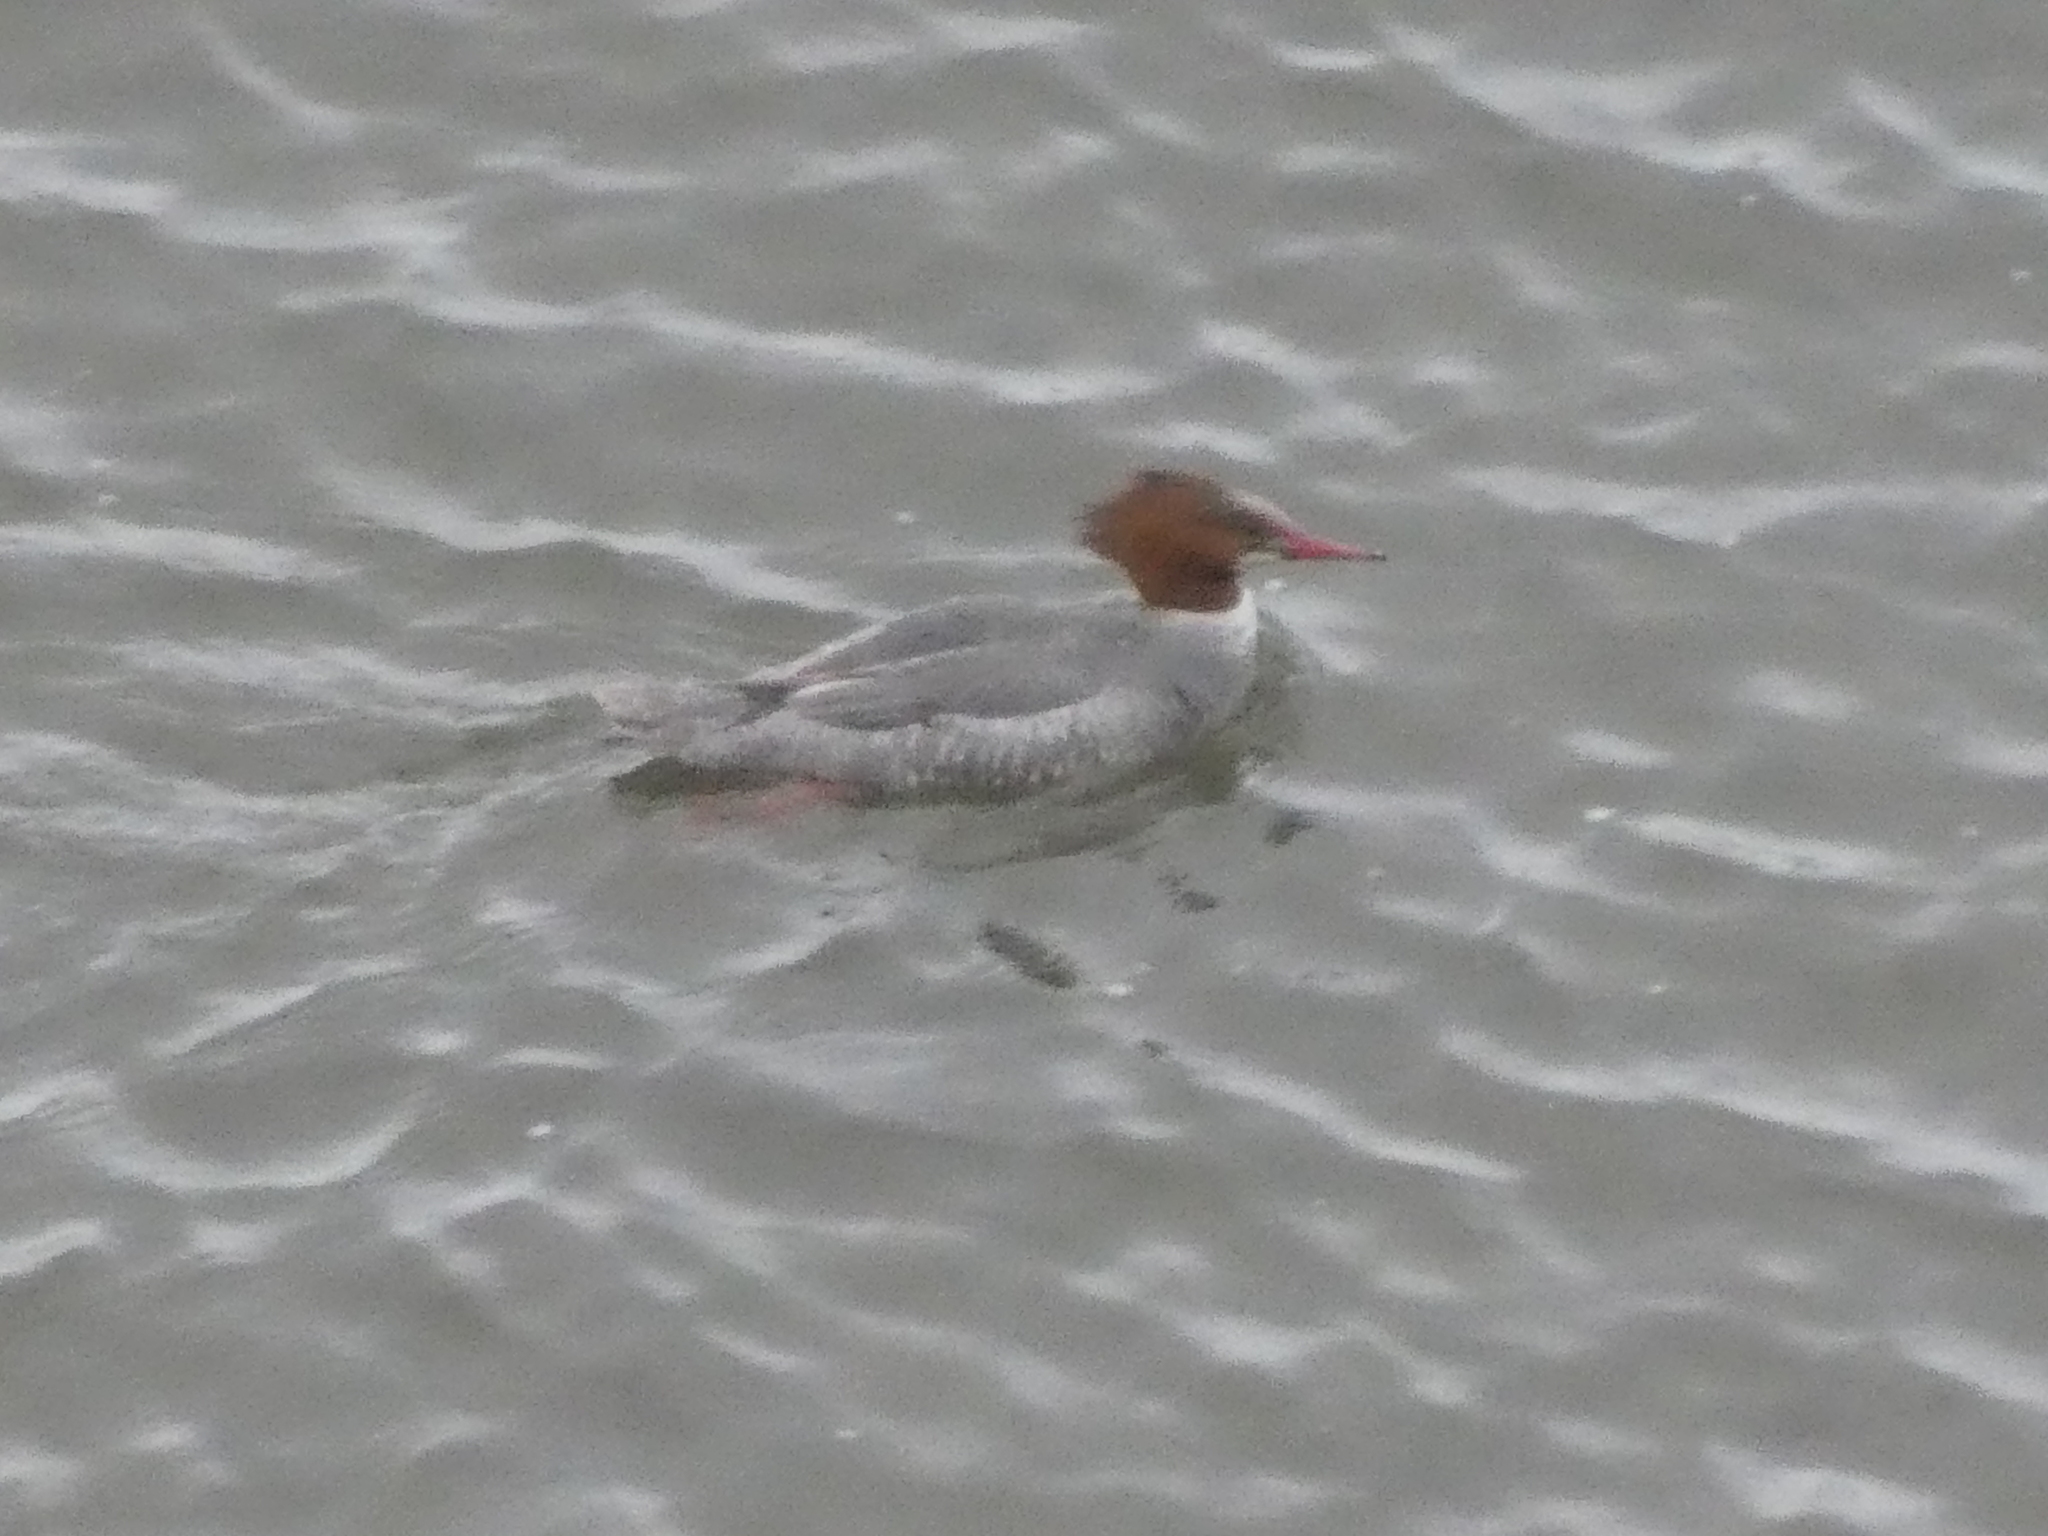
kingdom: Animalia
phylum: Chordata
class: Aves
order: Anseriformes
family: Anatidae
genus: Mergus
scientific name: Mergus merganser
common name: Common merganser
